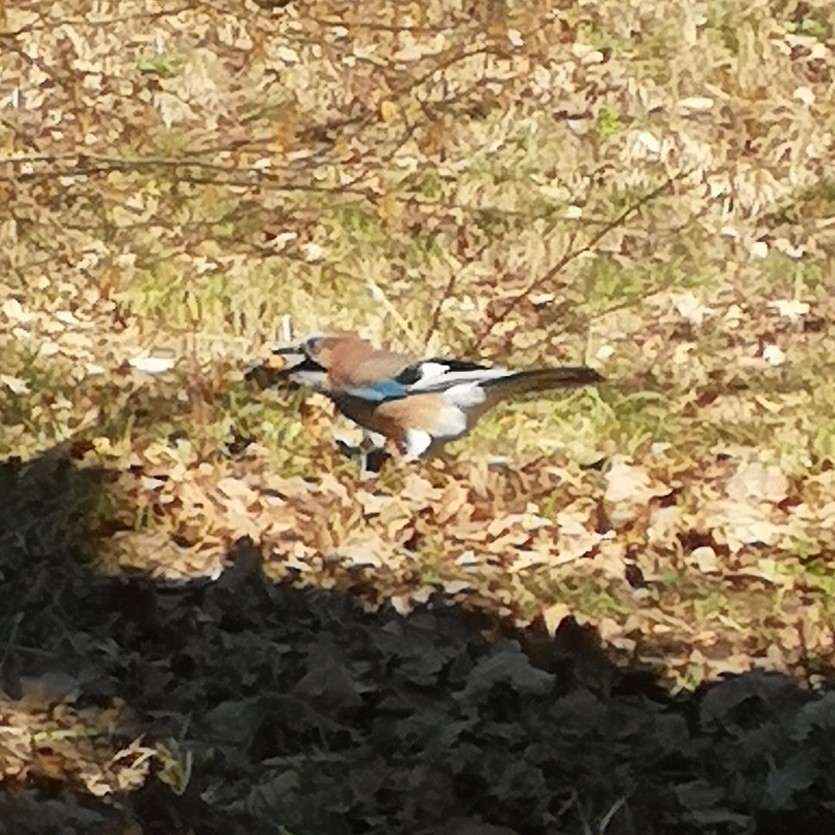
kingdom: Animalia
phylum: Chordata
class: Aves
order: Passeriformes
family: Corvidae
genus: Garrulus
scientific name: Garrulus glandarius
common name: Eurasian jay
